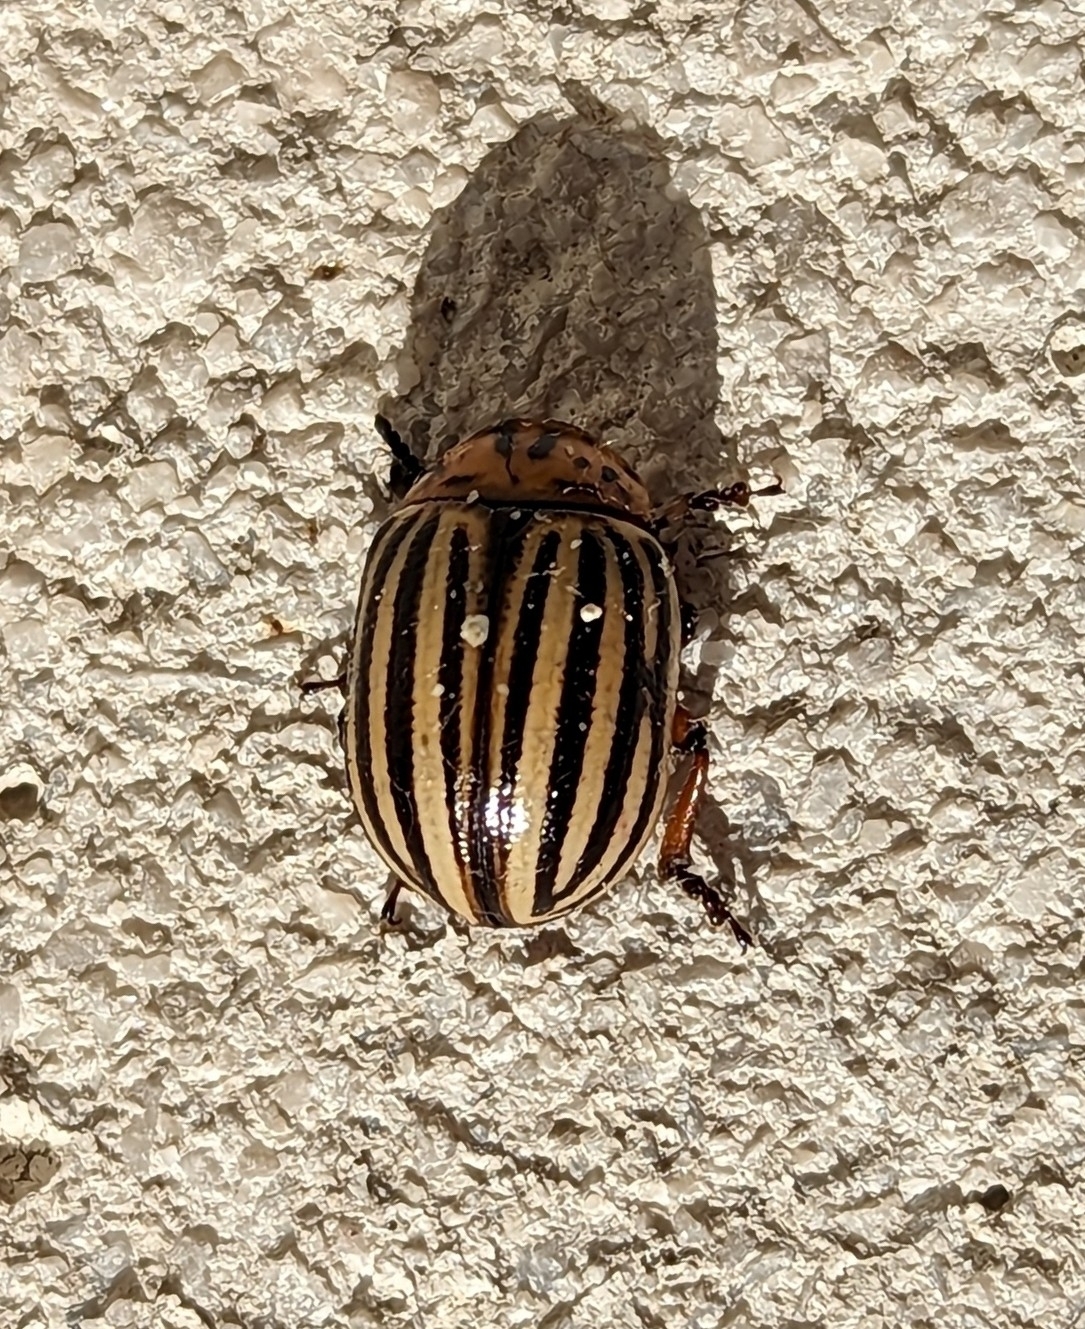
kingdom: Animalia
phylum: Arthropoda
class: Insecta
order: Coleoptera
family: Chrysomelidae
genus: Leptinotarsa
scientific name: Leptinotarsa decemlineata
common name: Colorado potato beetle
